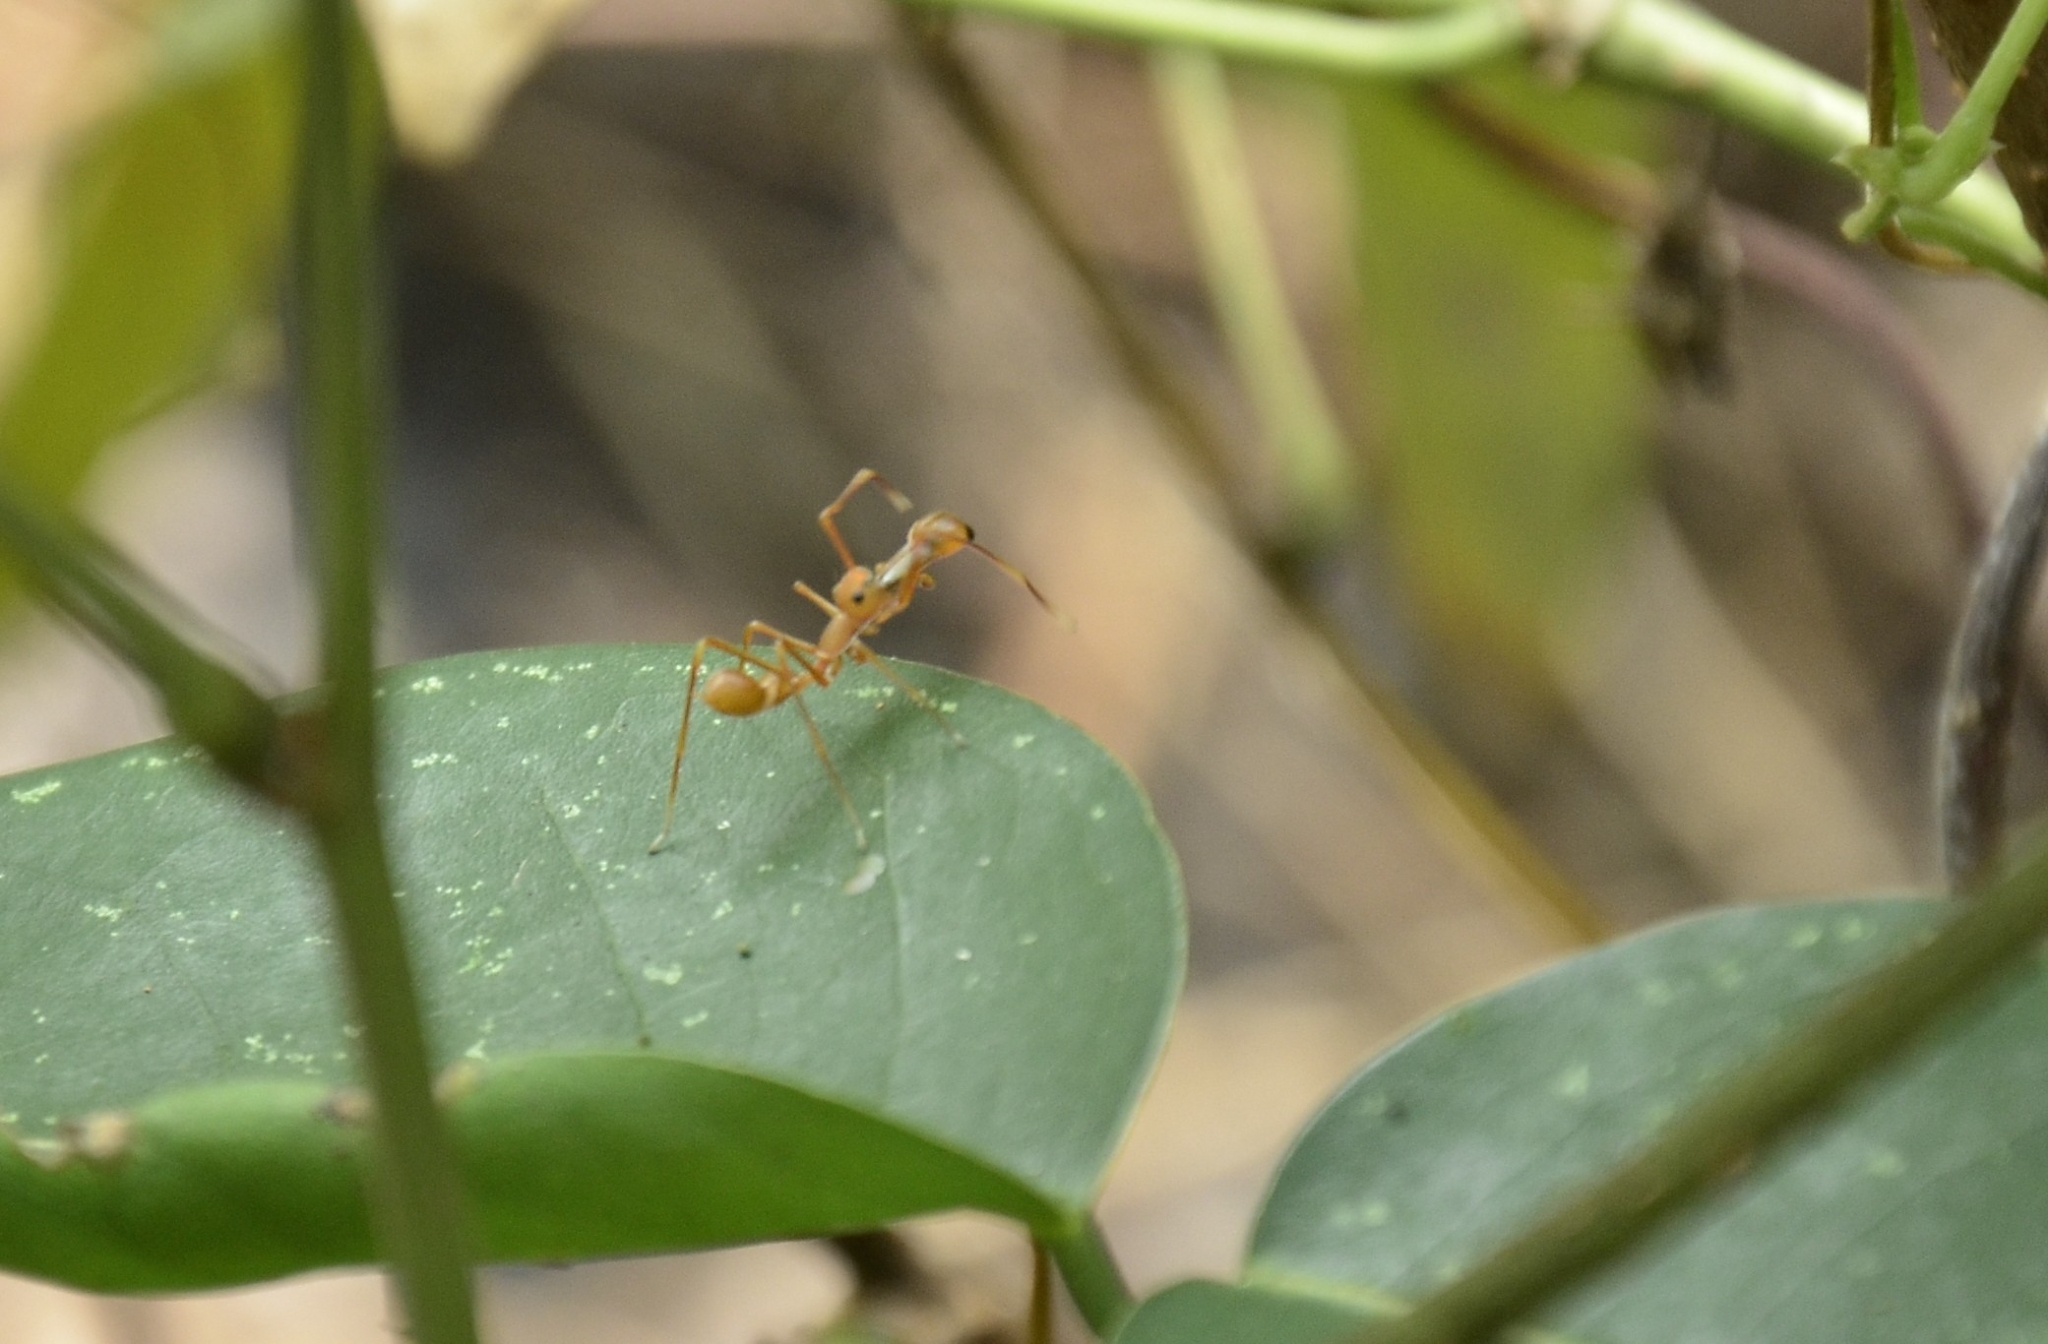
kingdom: Animalia
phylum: Arthropoda
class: Arachnida
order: Araneae
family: Salticidae
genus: Myrmaplata
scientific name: Myrmaplata plataleoides
